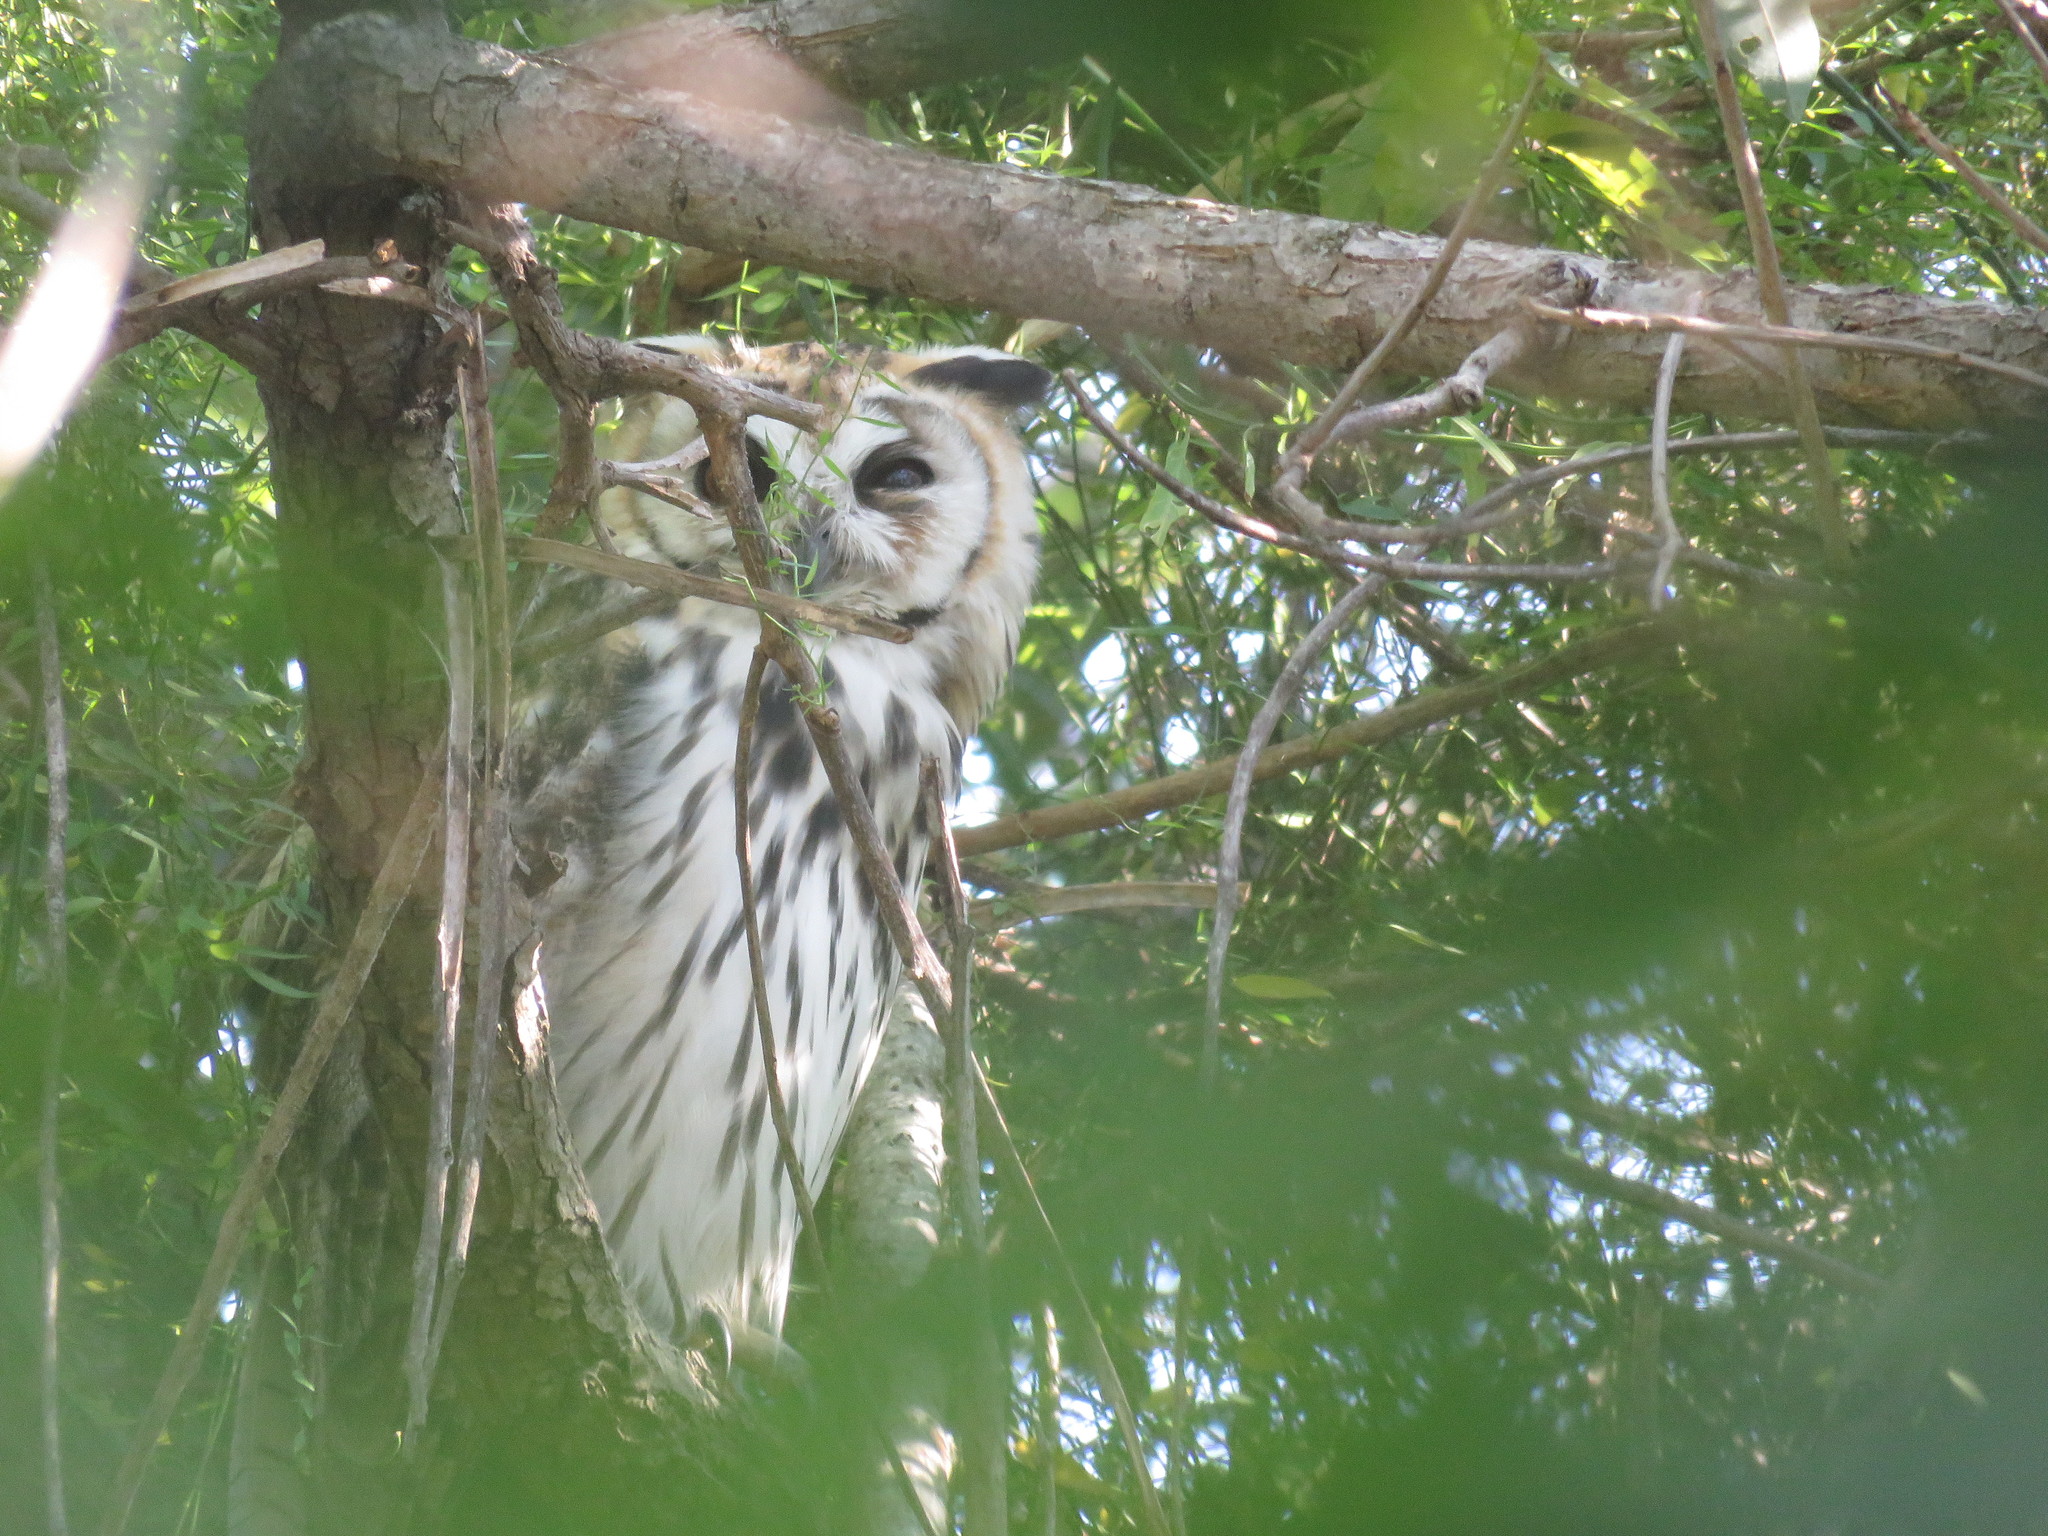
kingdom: Animalia
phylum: Chordata
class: Aves
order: Strigiformes
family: Strigidae
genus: Pseudoscops
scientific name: Pseudoscops clamator
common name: Striped owl
